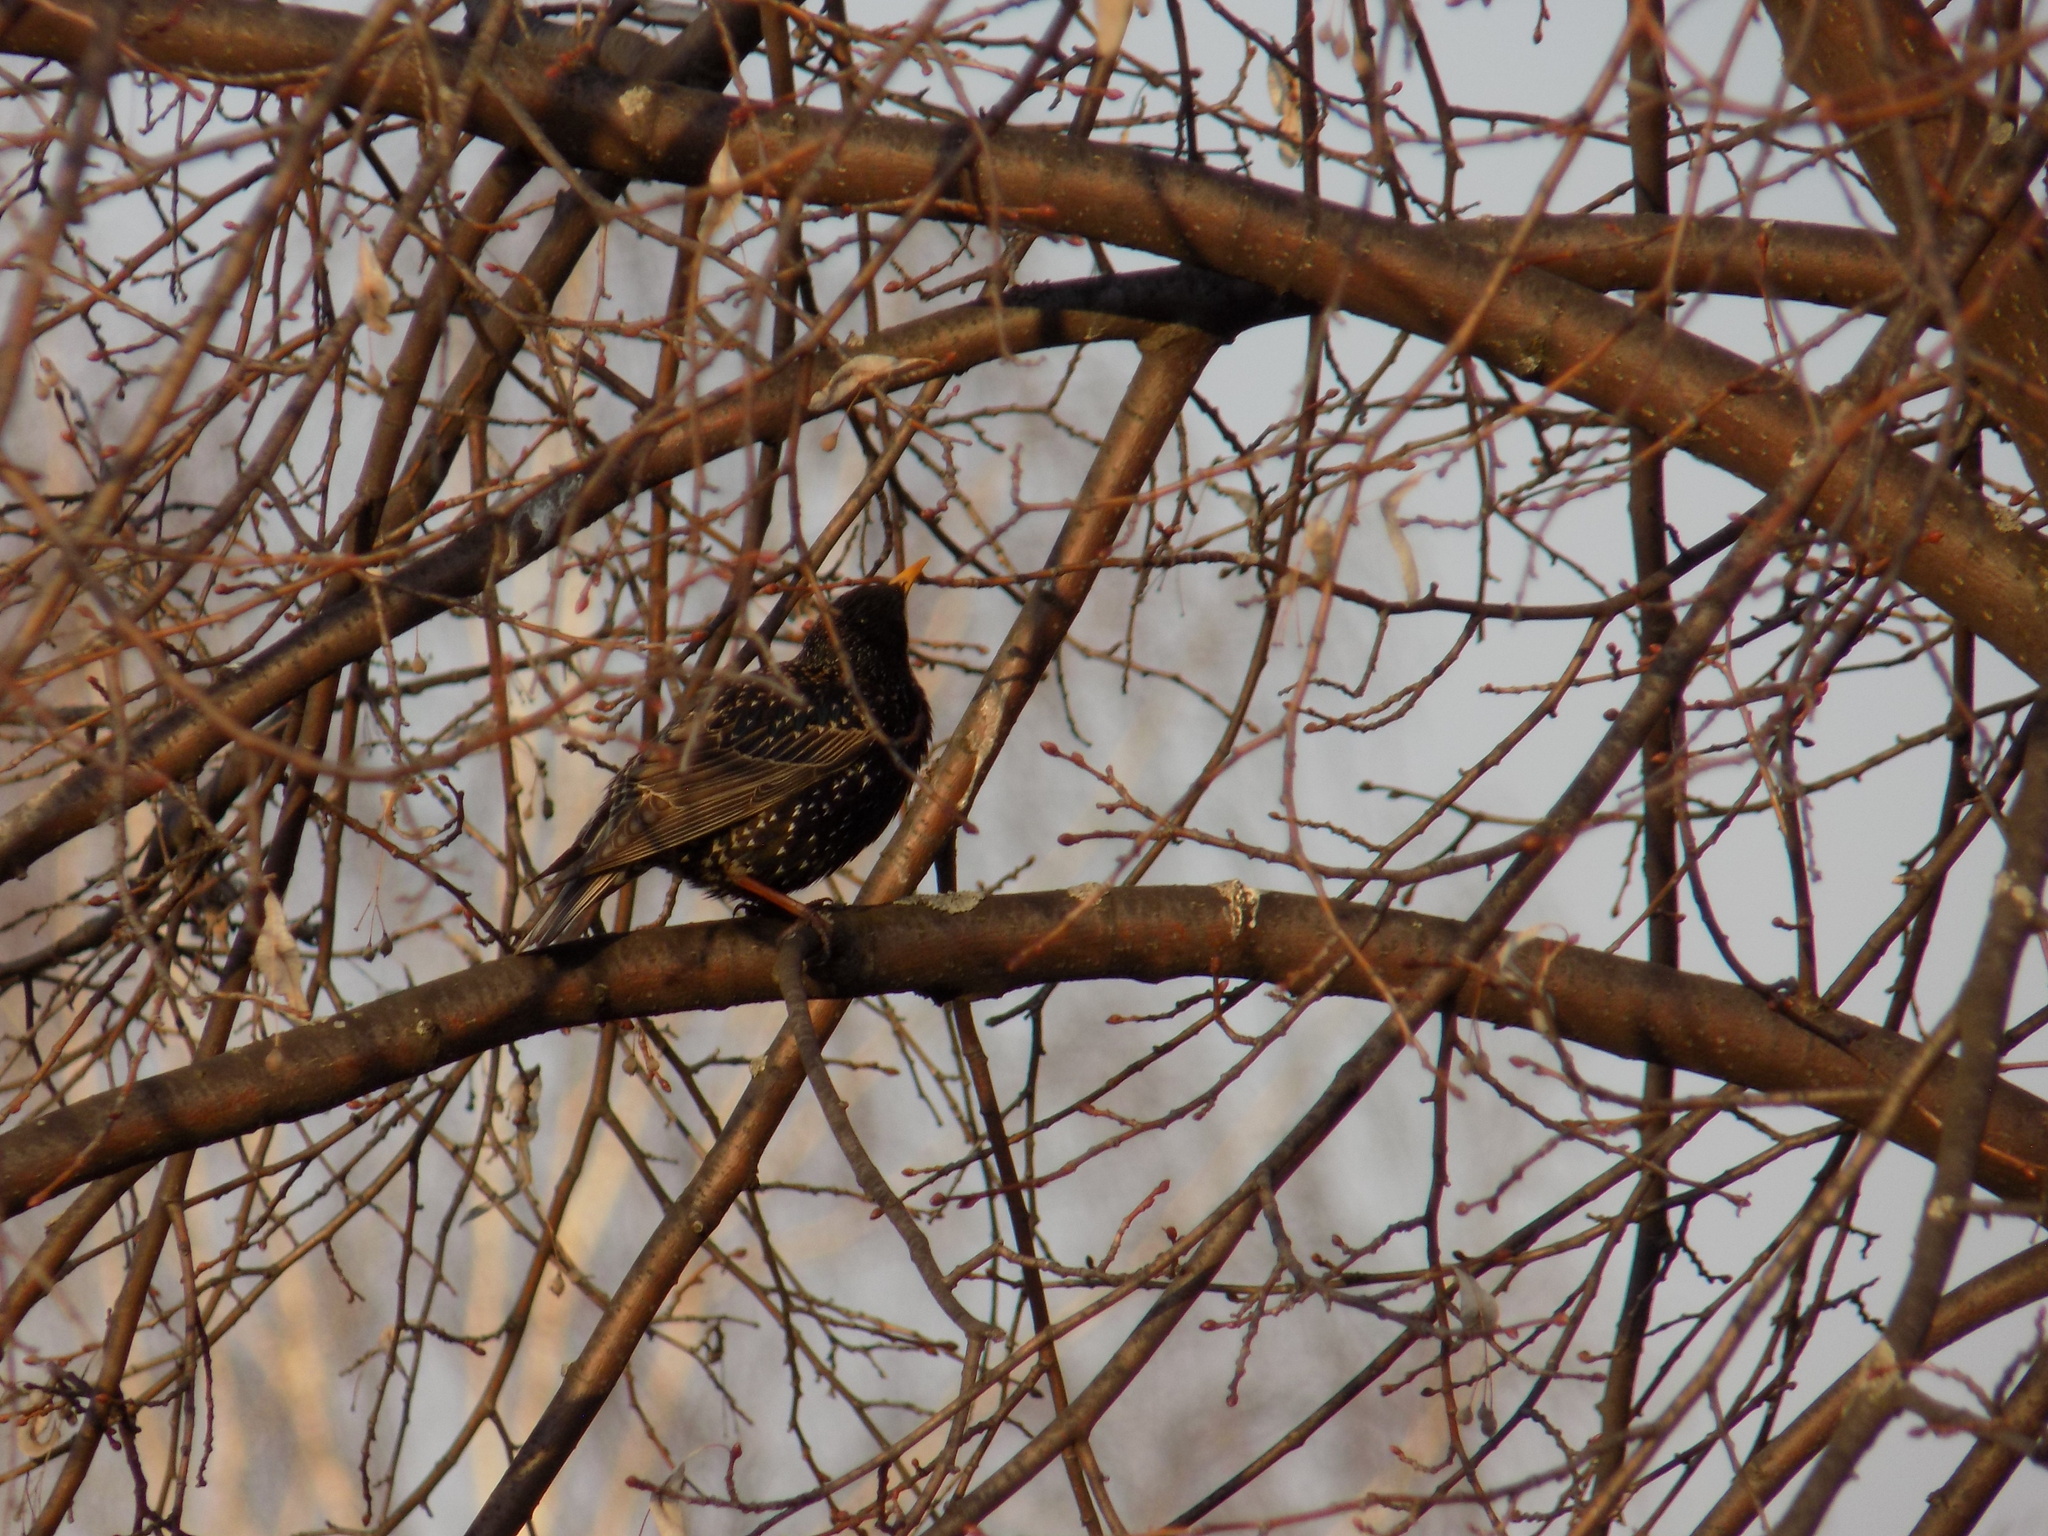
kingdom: Animalia
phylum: Chordata
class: Aves
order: Passeriformes
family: Sturnidae
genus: Sturnus
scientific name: Sturnus vulgaris
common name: Common starling
